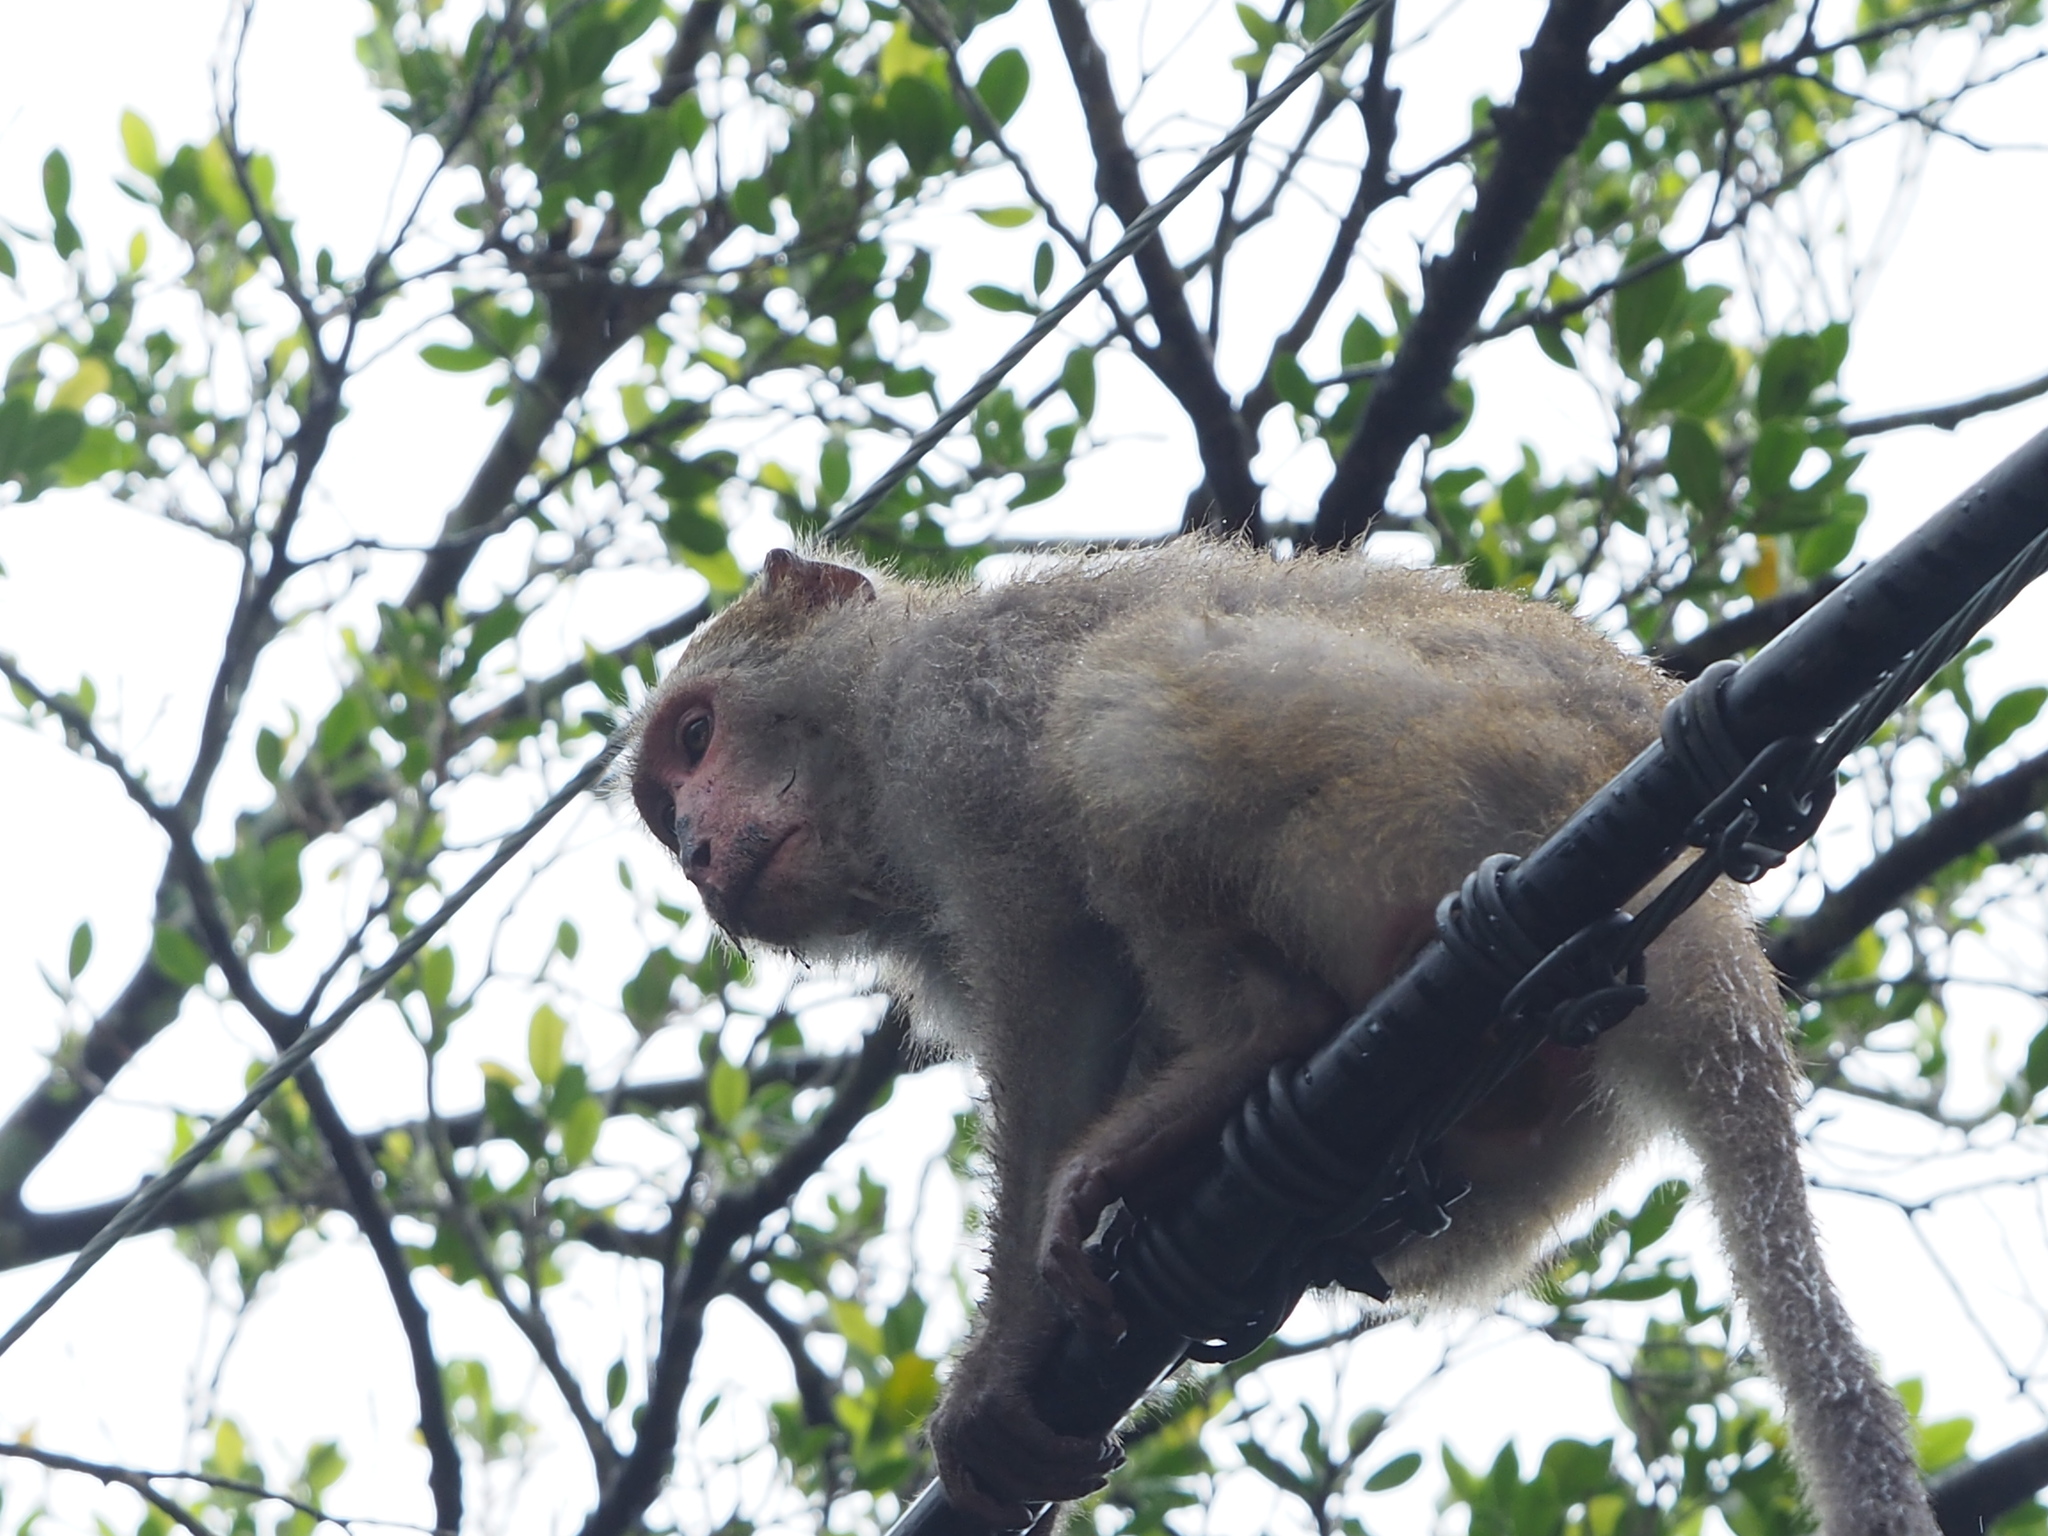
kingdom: Animalia
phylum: Chordata
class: Mammalia
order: Primates
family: Cercopithecidae
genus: Macaca
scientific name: Macaca cyclopis
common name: Formosan rock macaque
